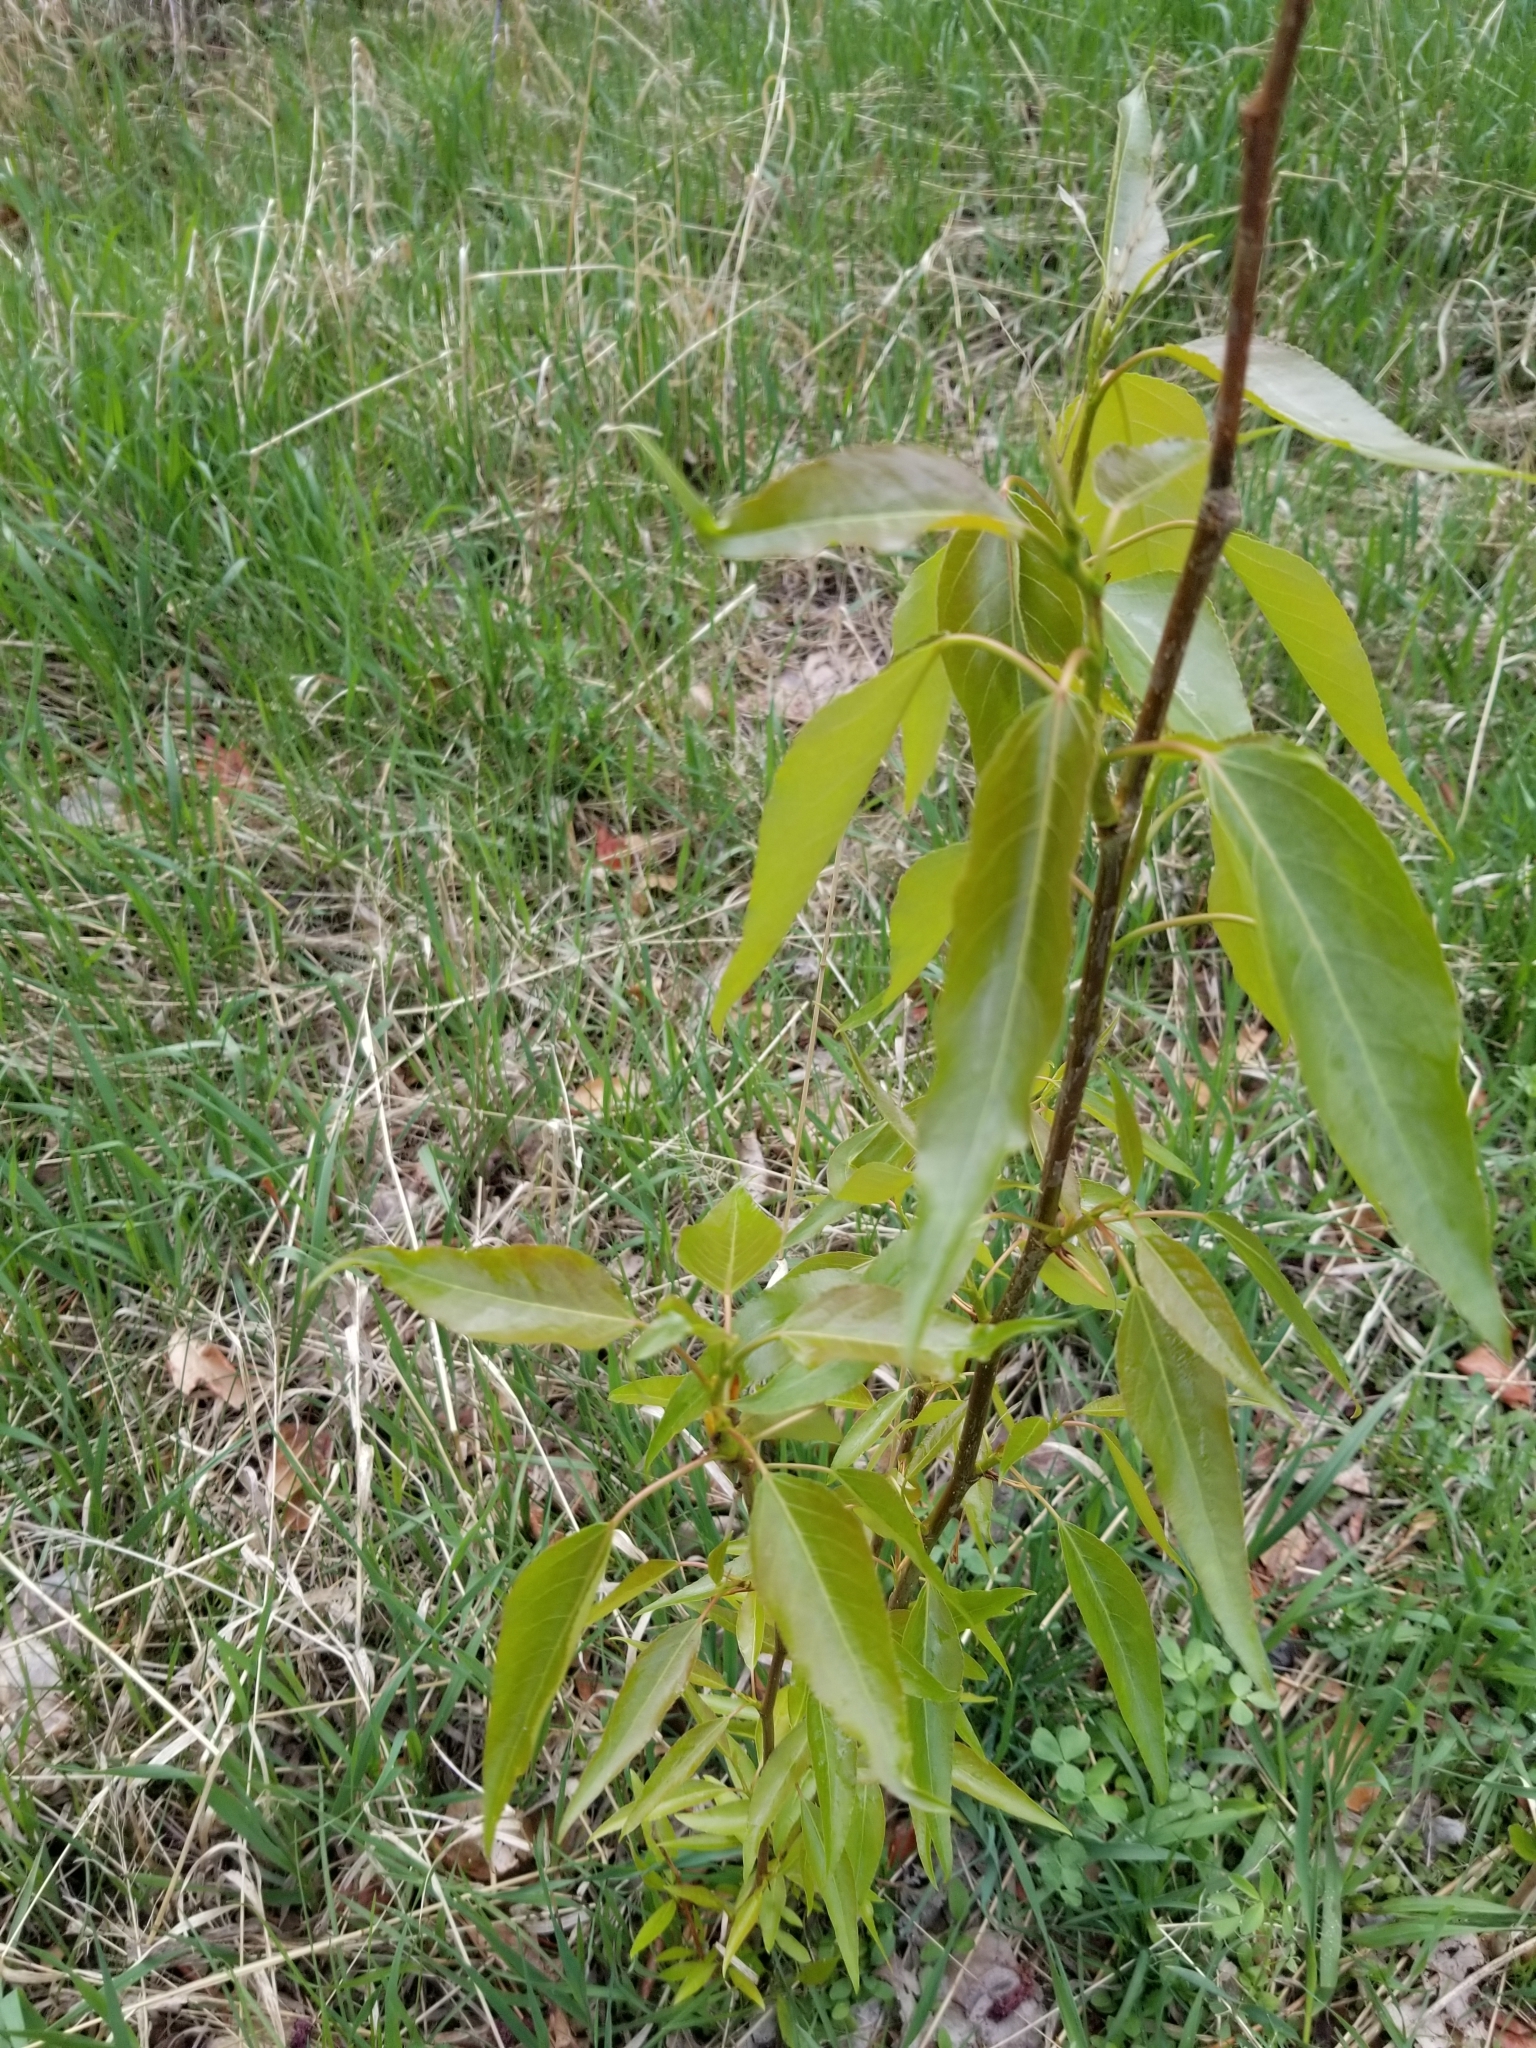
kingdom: Plantae
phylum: Tracheophyta
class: Magnoliopsida
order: Malpighiales
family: Salicaceae
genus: Populus
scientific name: Populus trichocarpa
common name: Black cottonwood
